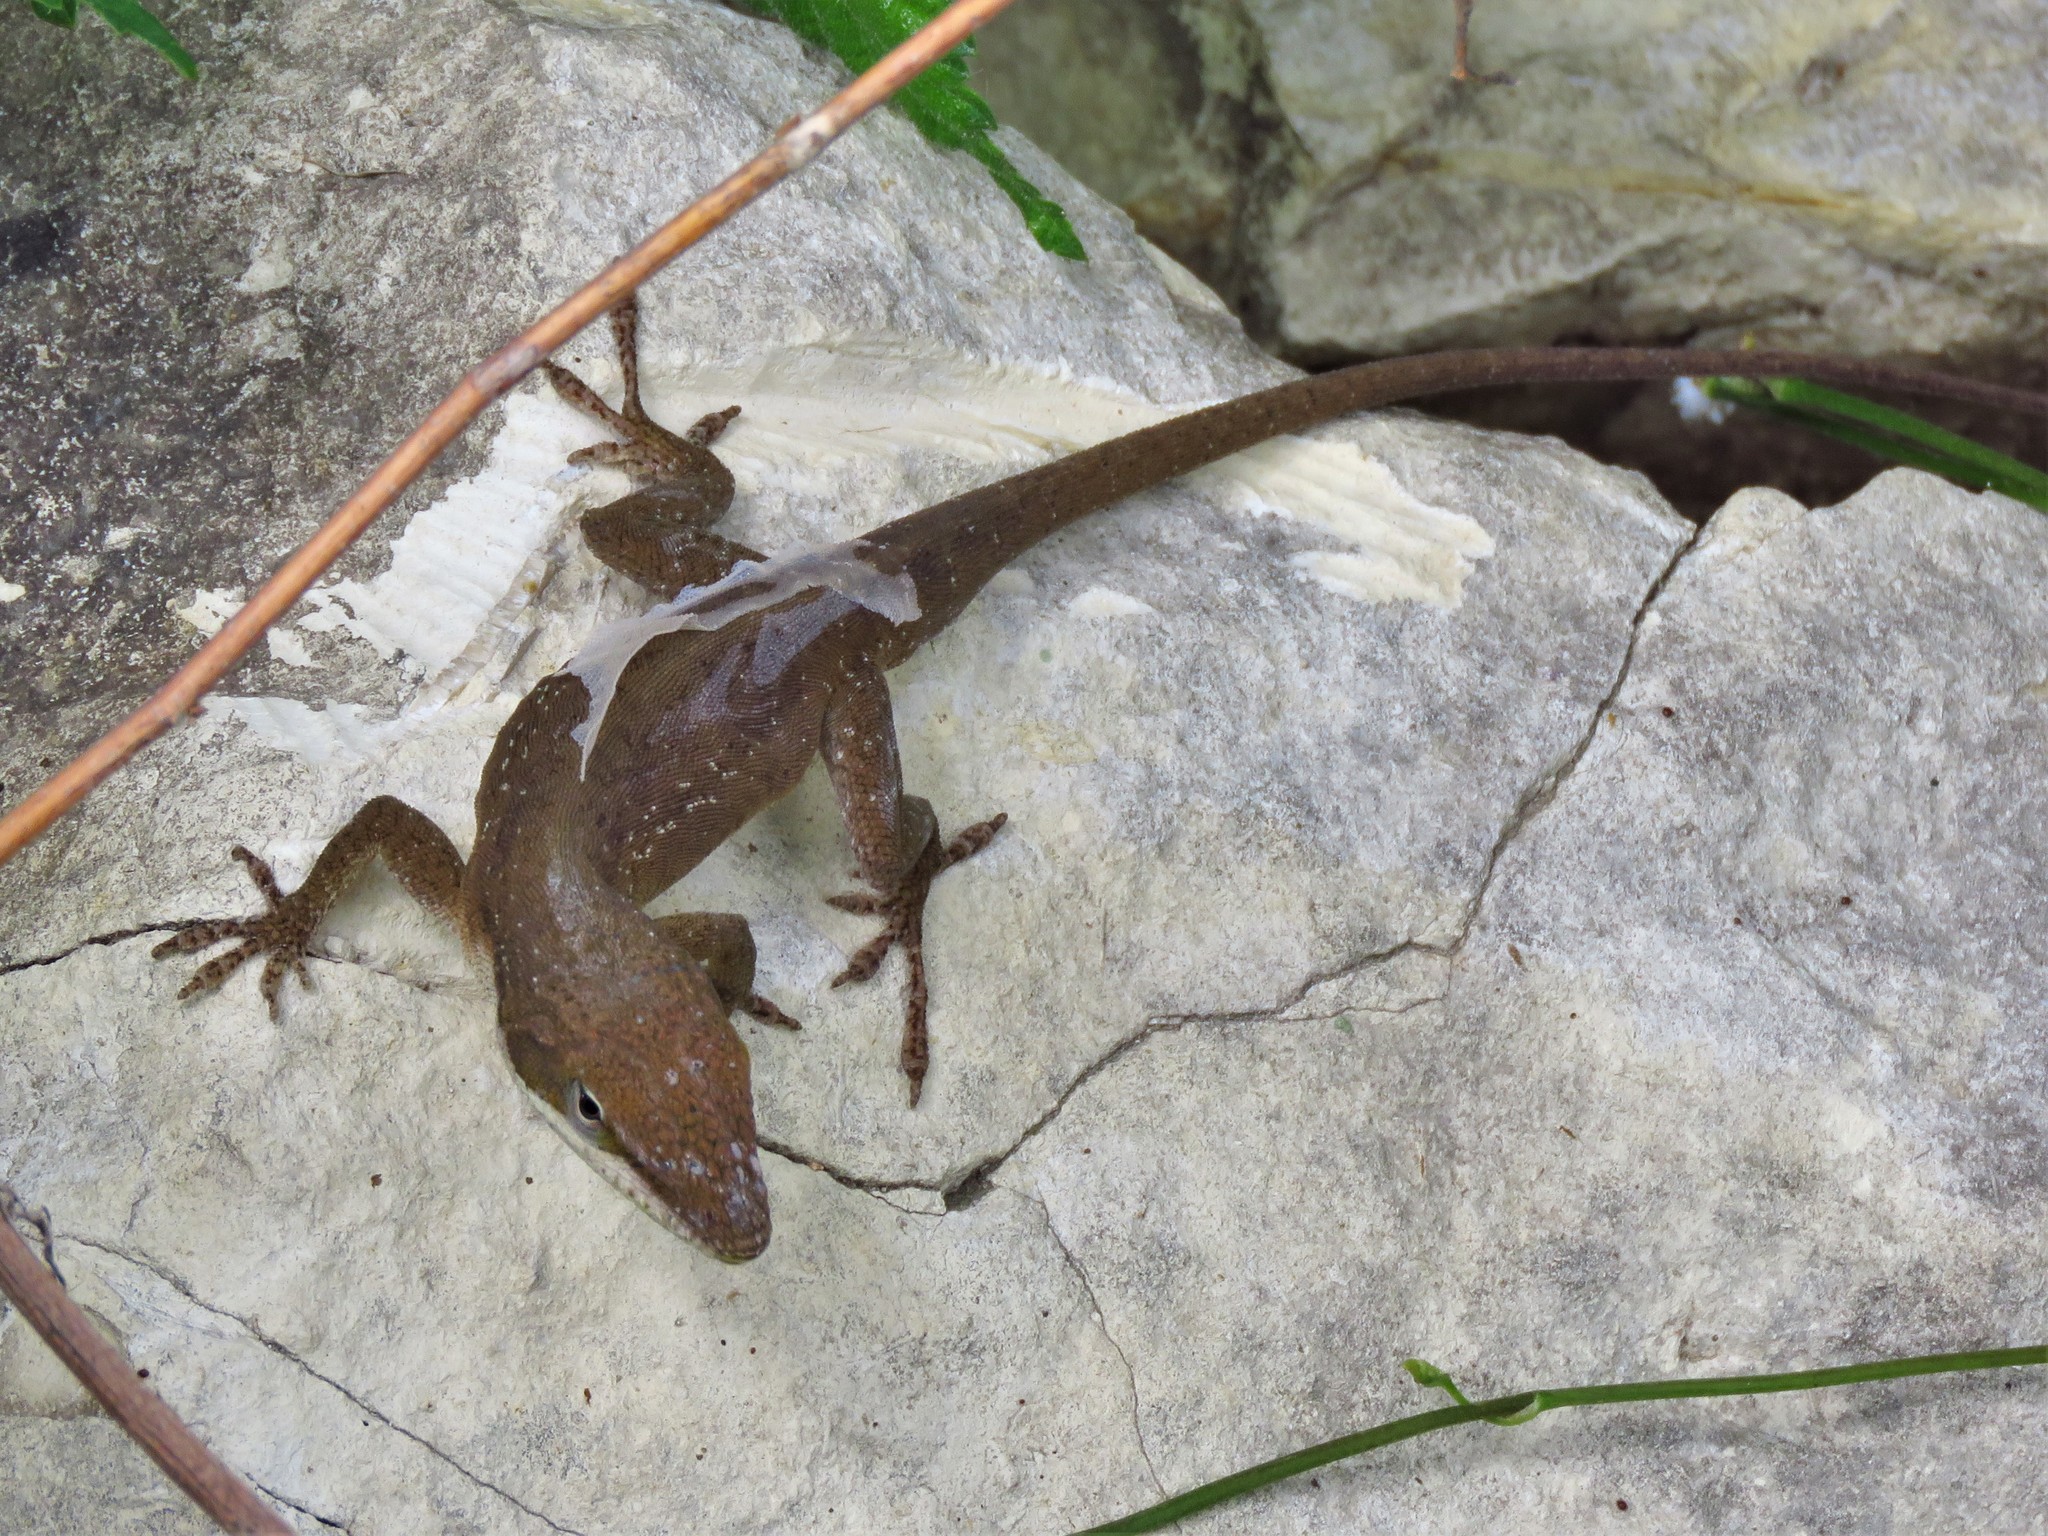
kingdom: Animalia
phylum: Chordata
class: Squamata
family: Dactyloidae
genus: Anolis
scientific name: Anolis carolinensis
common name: Green anole
